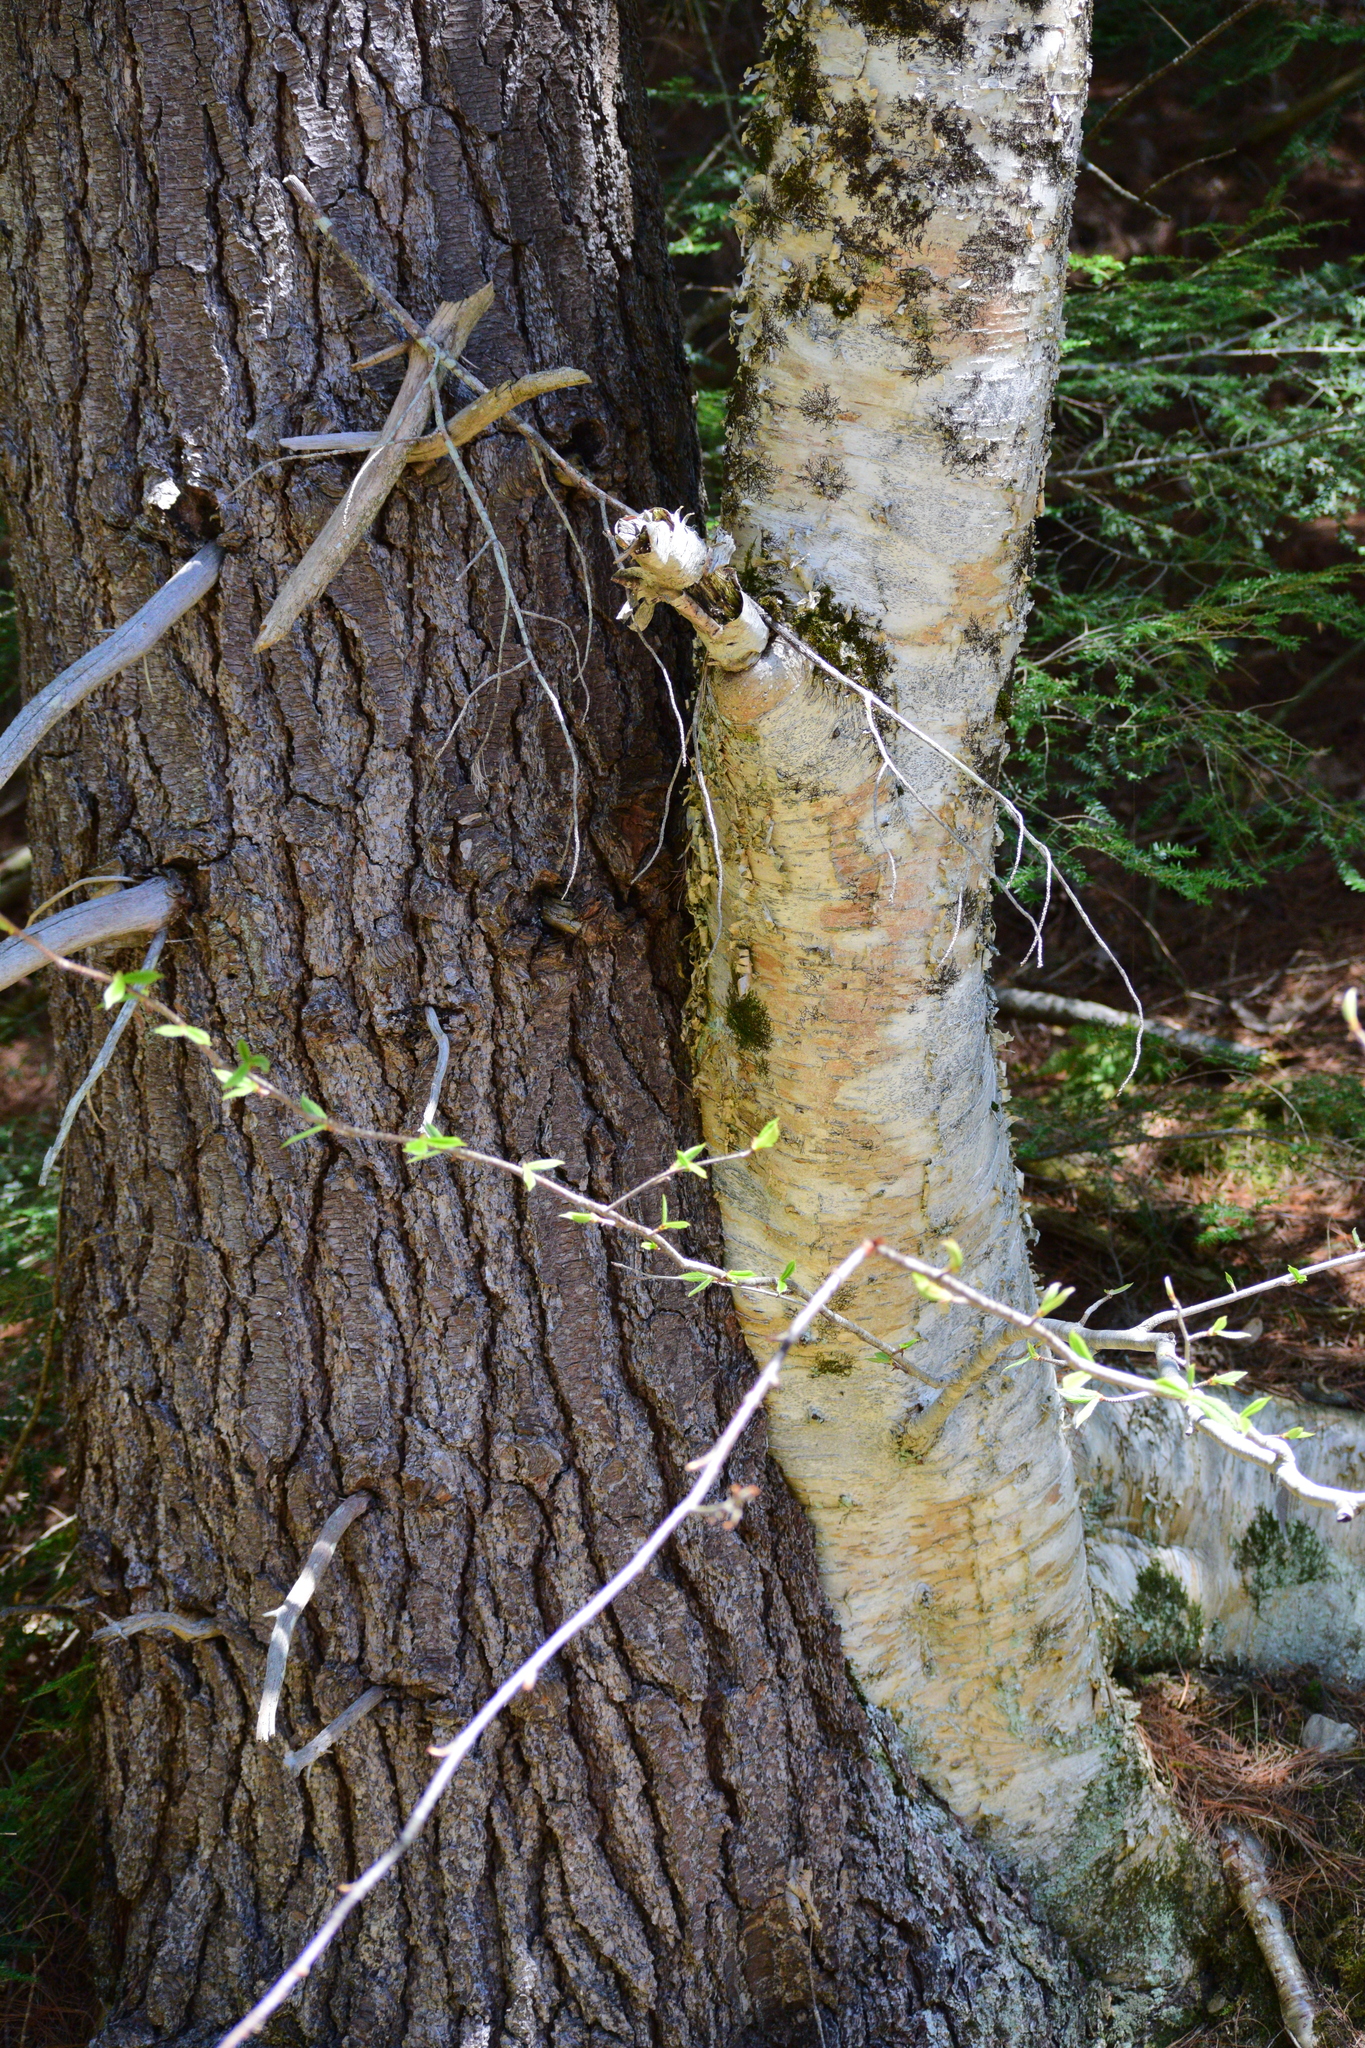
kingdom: Plantae
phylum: Tracheophyta
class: Magnoliopsida
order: Fagales
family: Betulaceae
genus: Betula
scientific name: Betula papyrifera
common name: Paper birch
